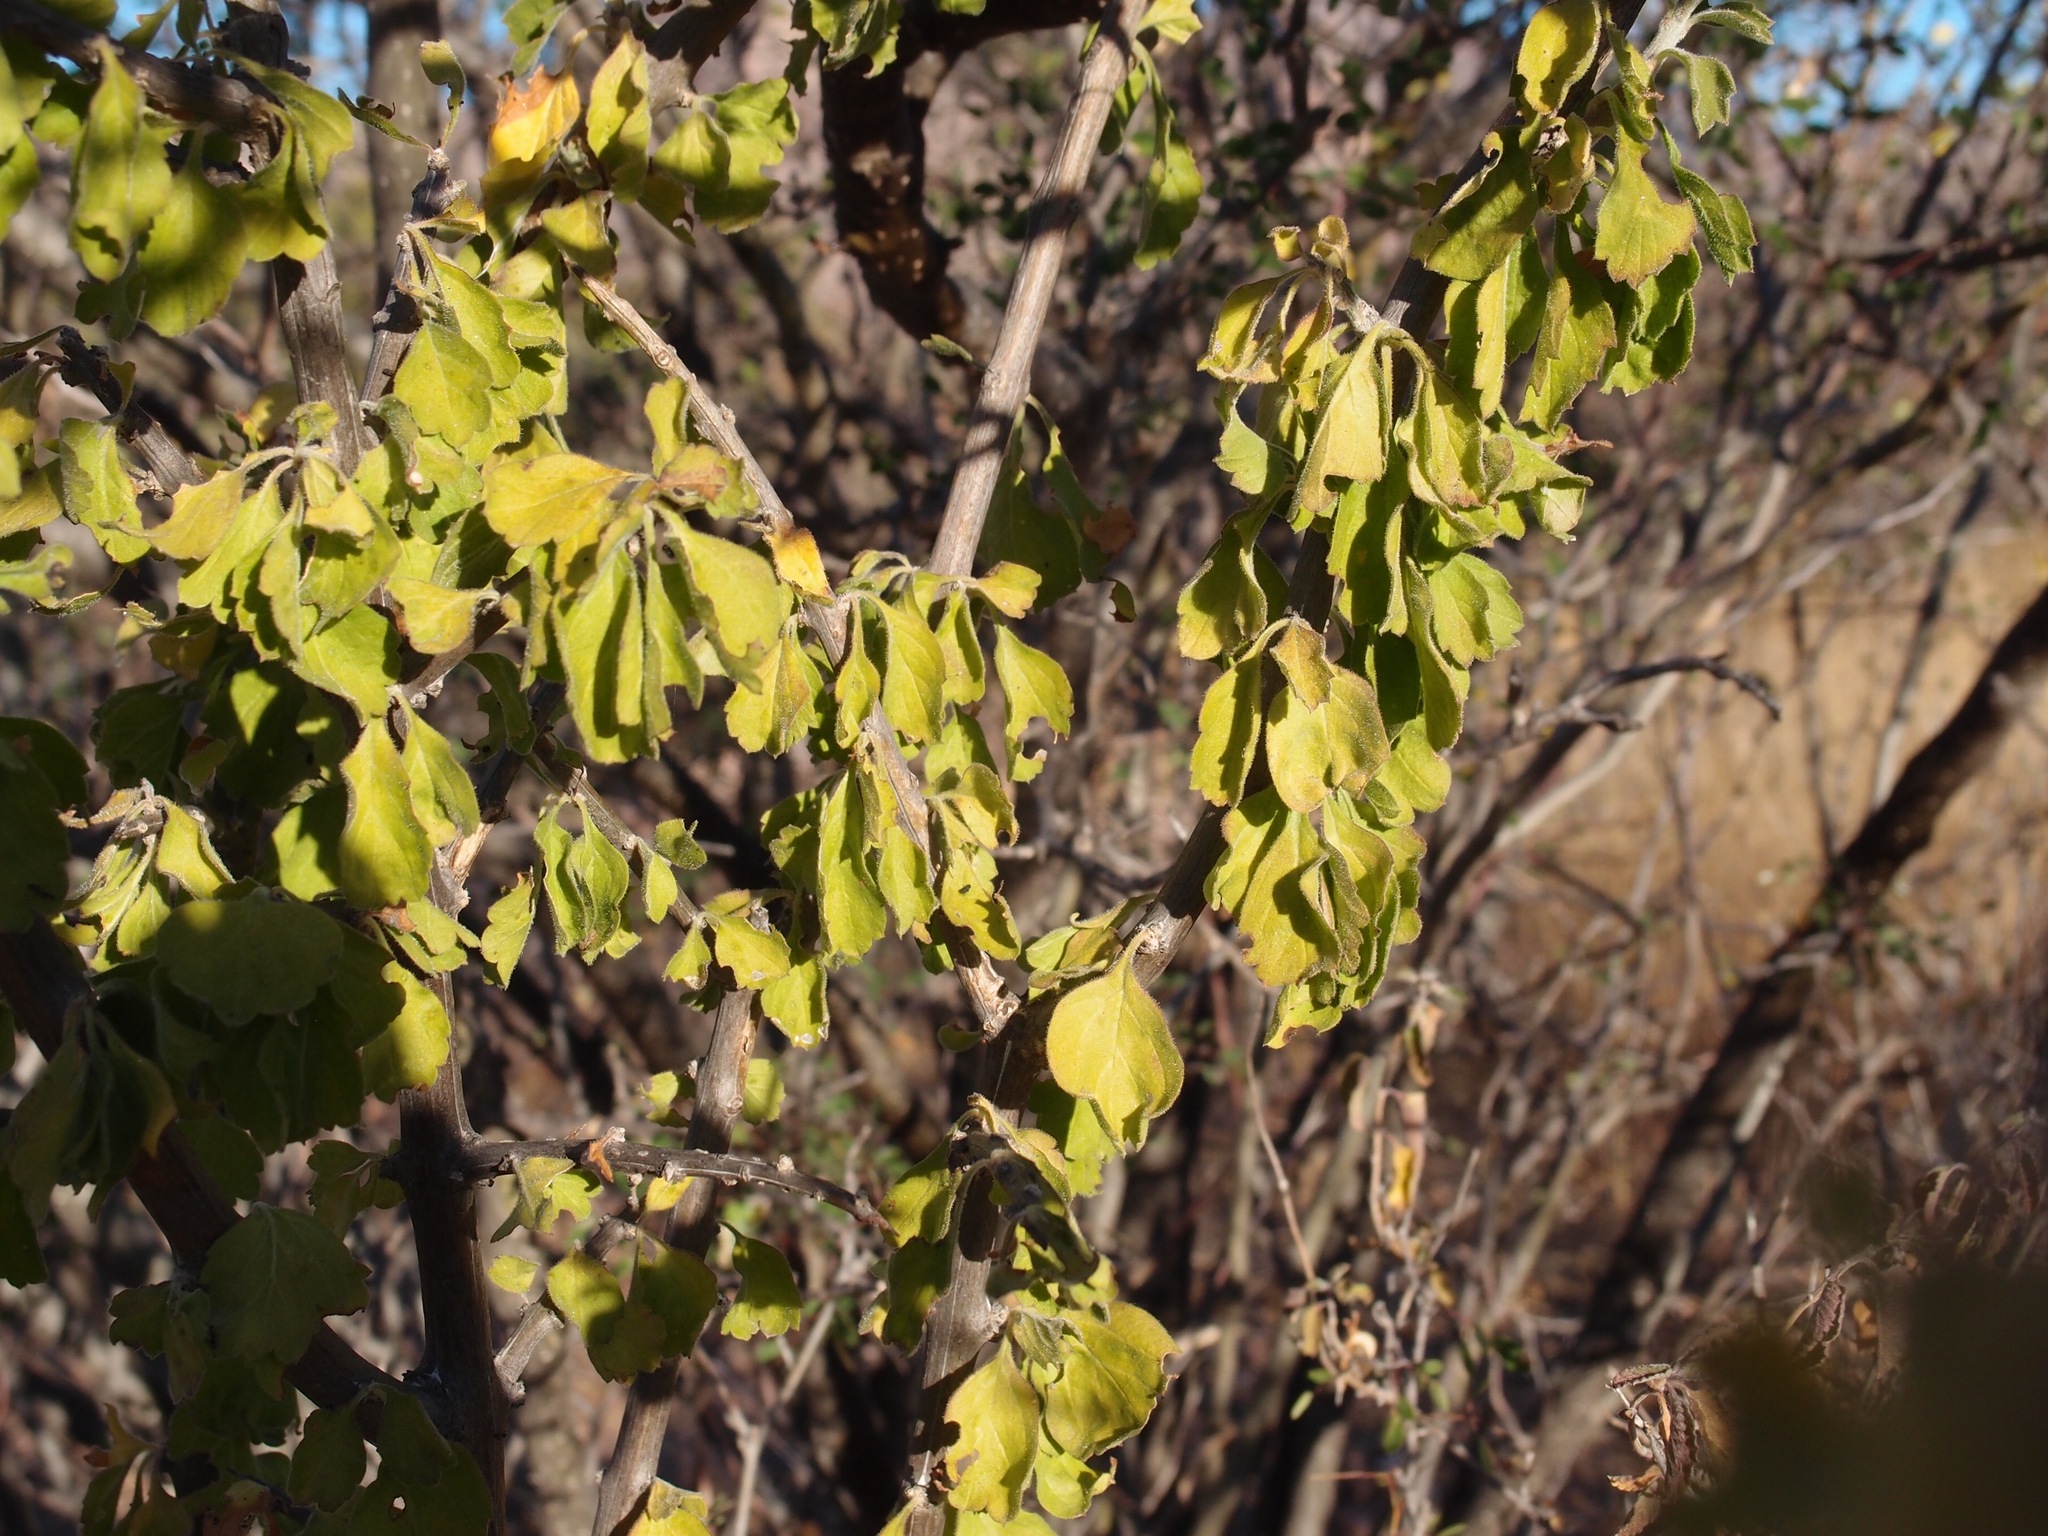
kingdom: Plantae
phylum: Tracheophyta
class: Magnoliopsida
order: Lamiales
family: Verbenaceae
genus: Citharexylum
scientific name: Citharexylum flabellifolium
